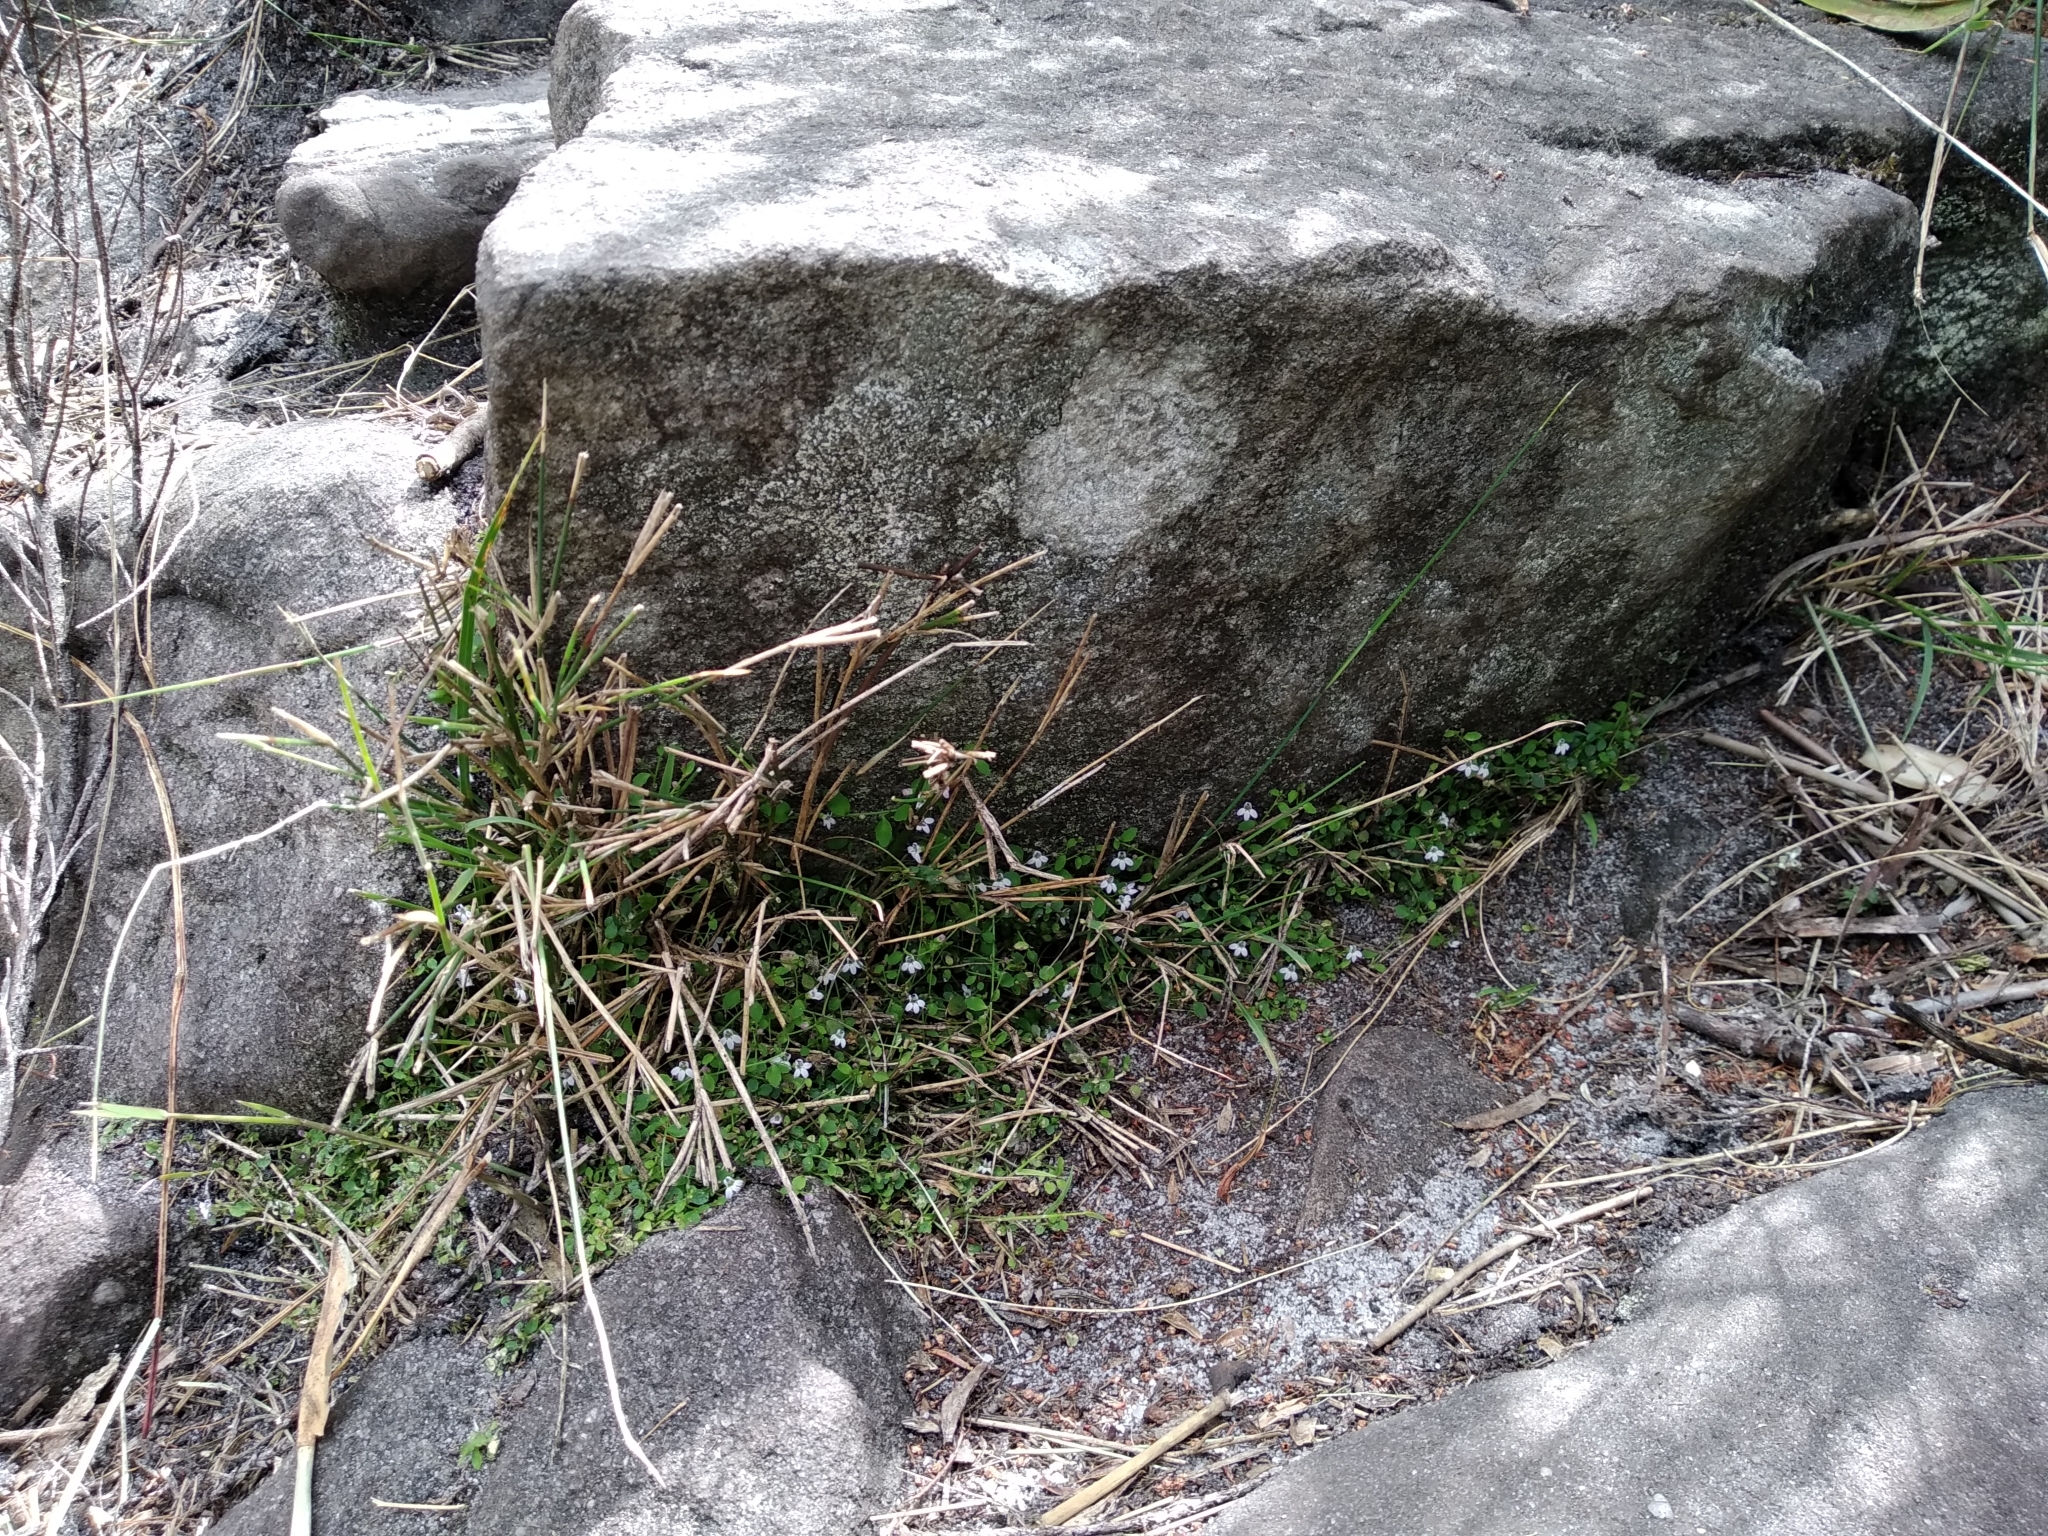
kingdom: Plantae
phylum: Tracheophyta
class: Magnoliopsida
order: Asterales
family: Campanulaceae
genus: Unigenes
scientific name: Unigenes humifusa
